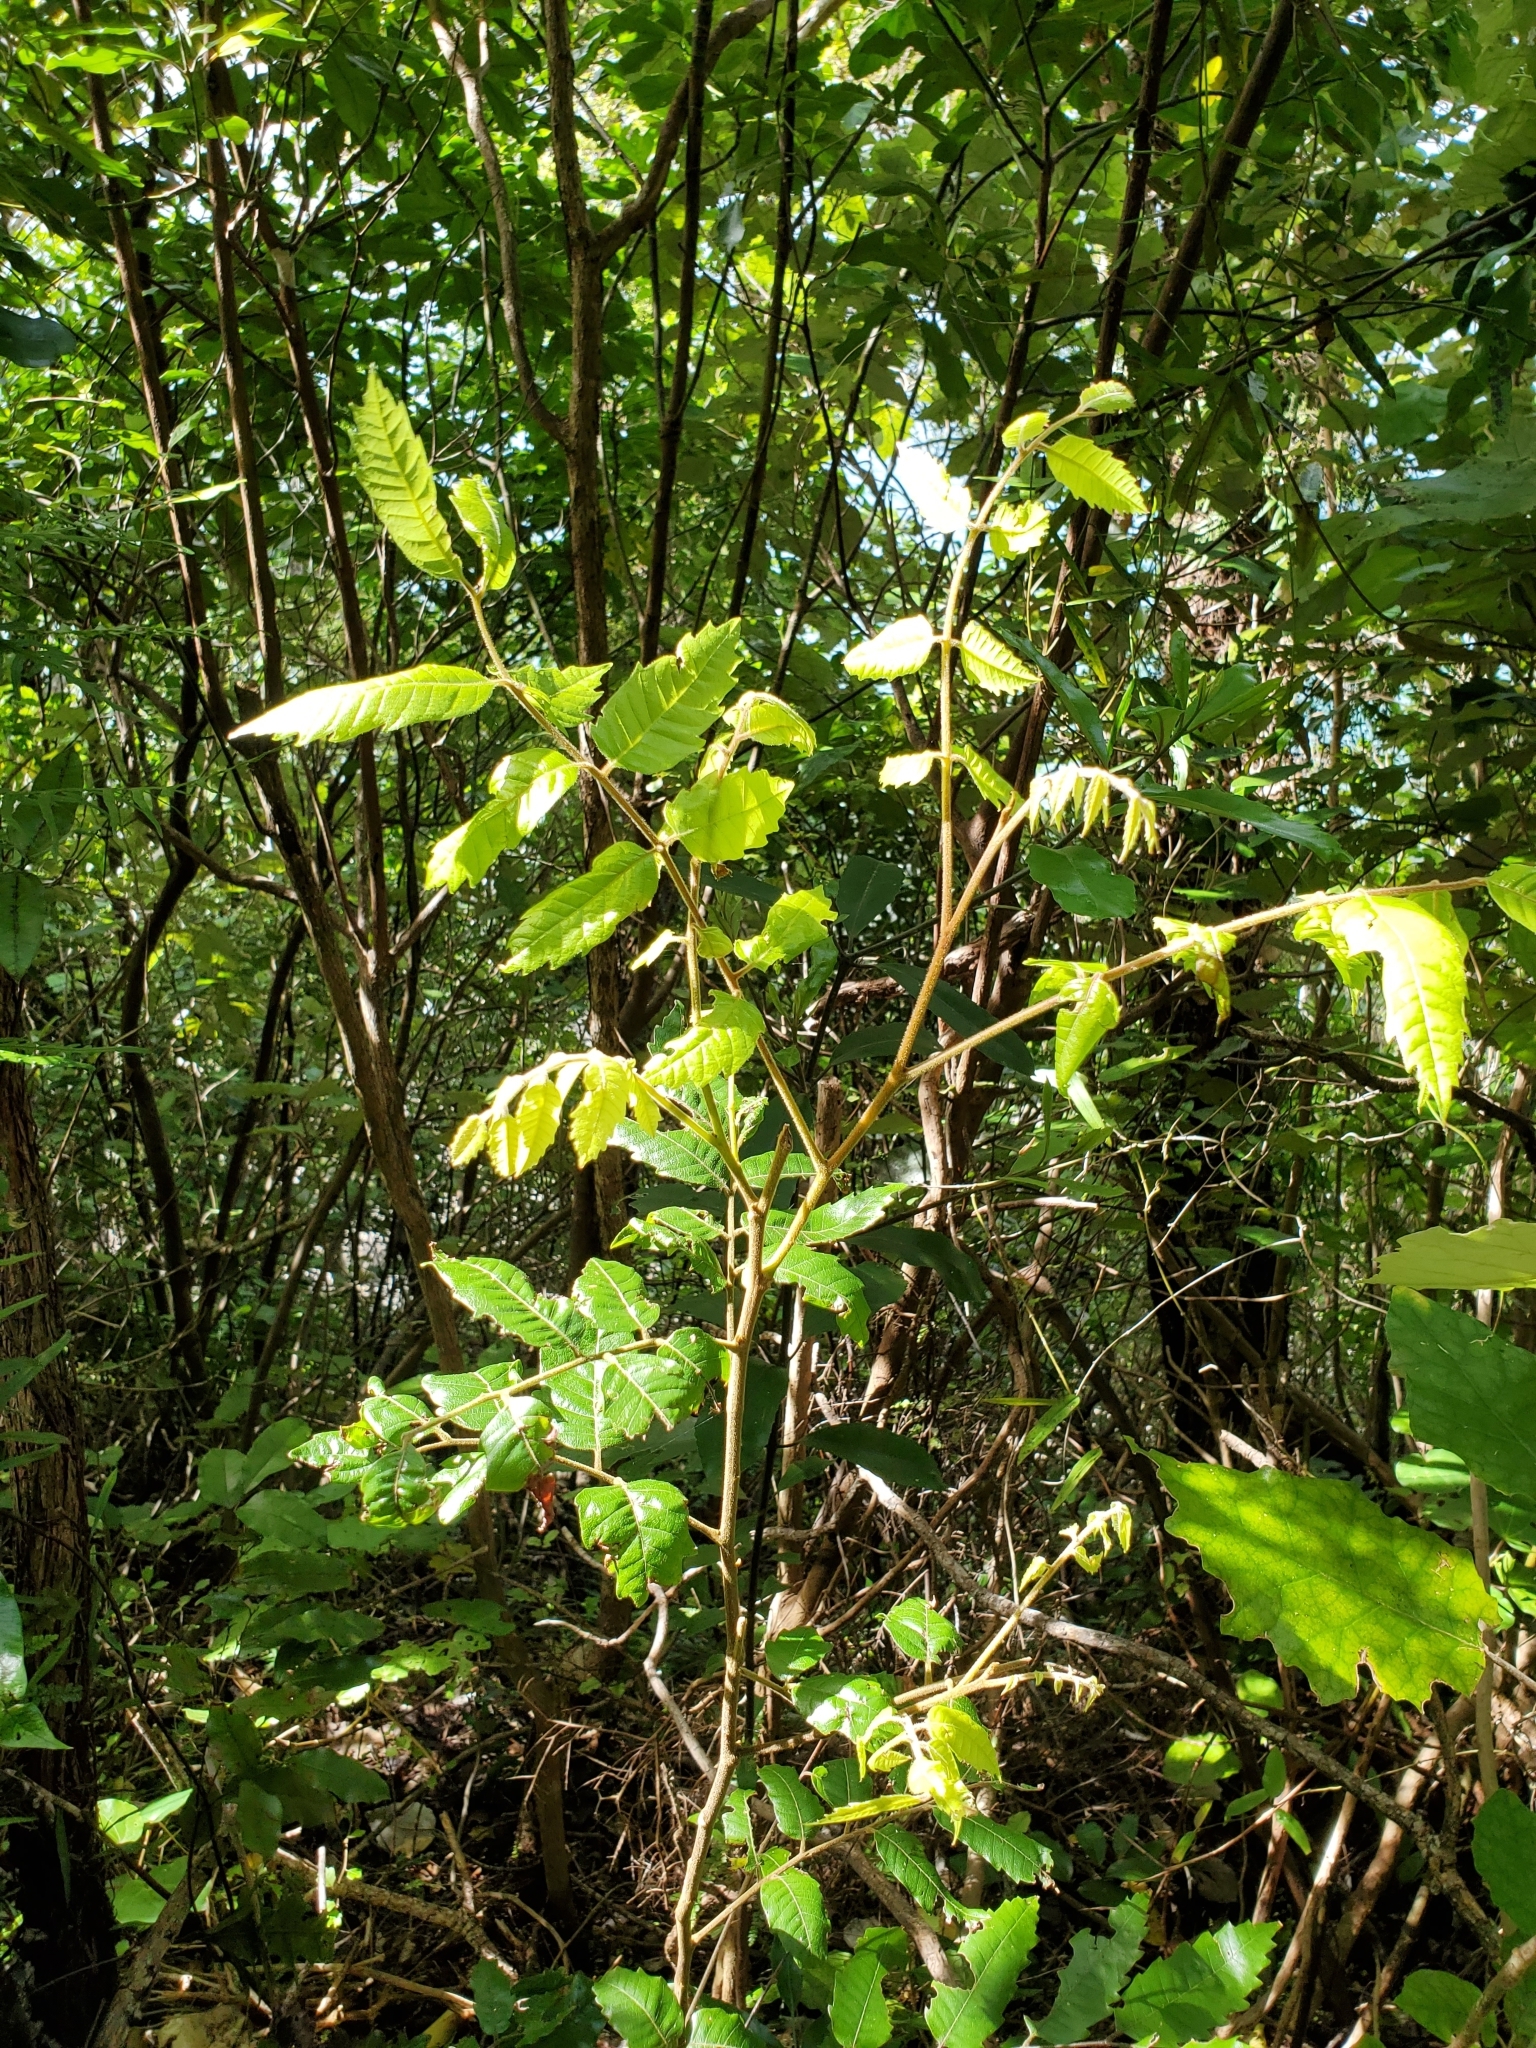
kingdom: Plantae
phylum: Tracheophyta
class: Magnoliopsida
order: Sapindales
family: Sapindaceae
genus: Alectryon
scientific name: Alectryon excelsus
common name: Three kings titoki
